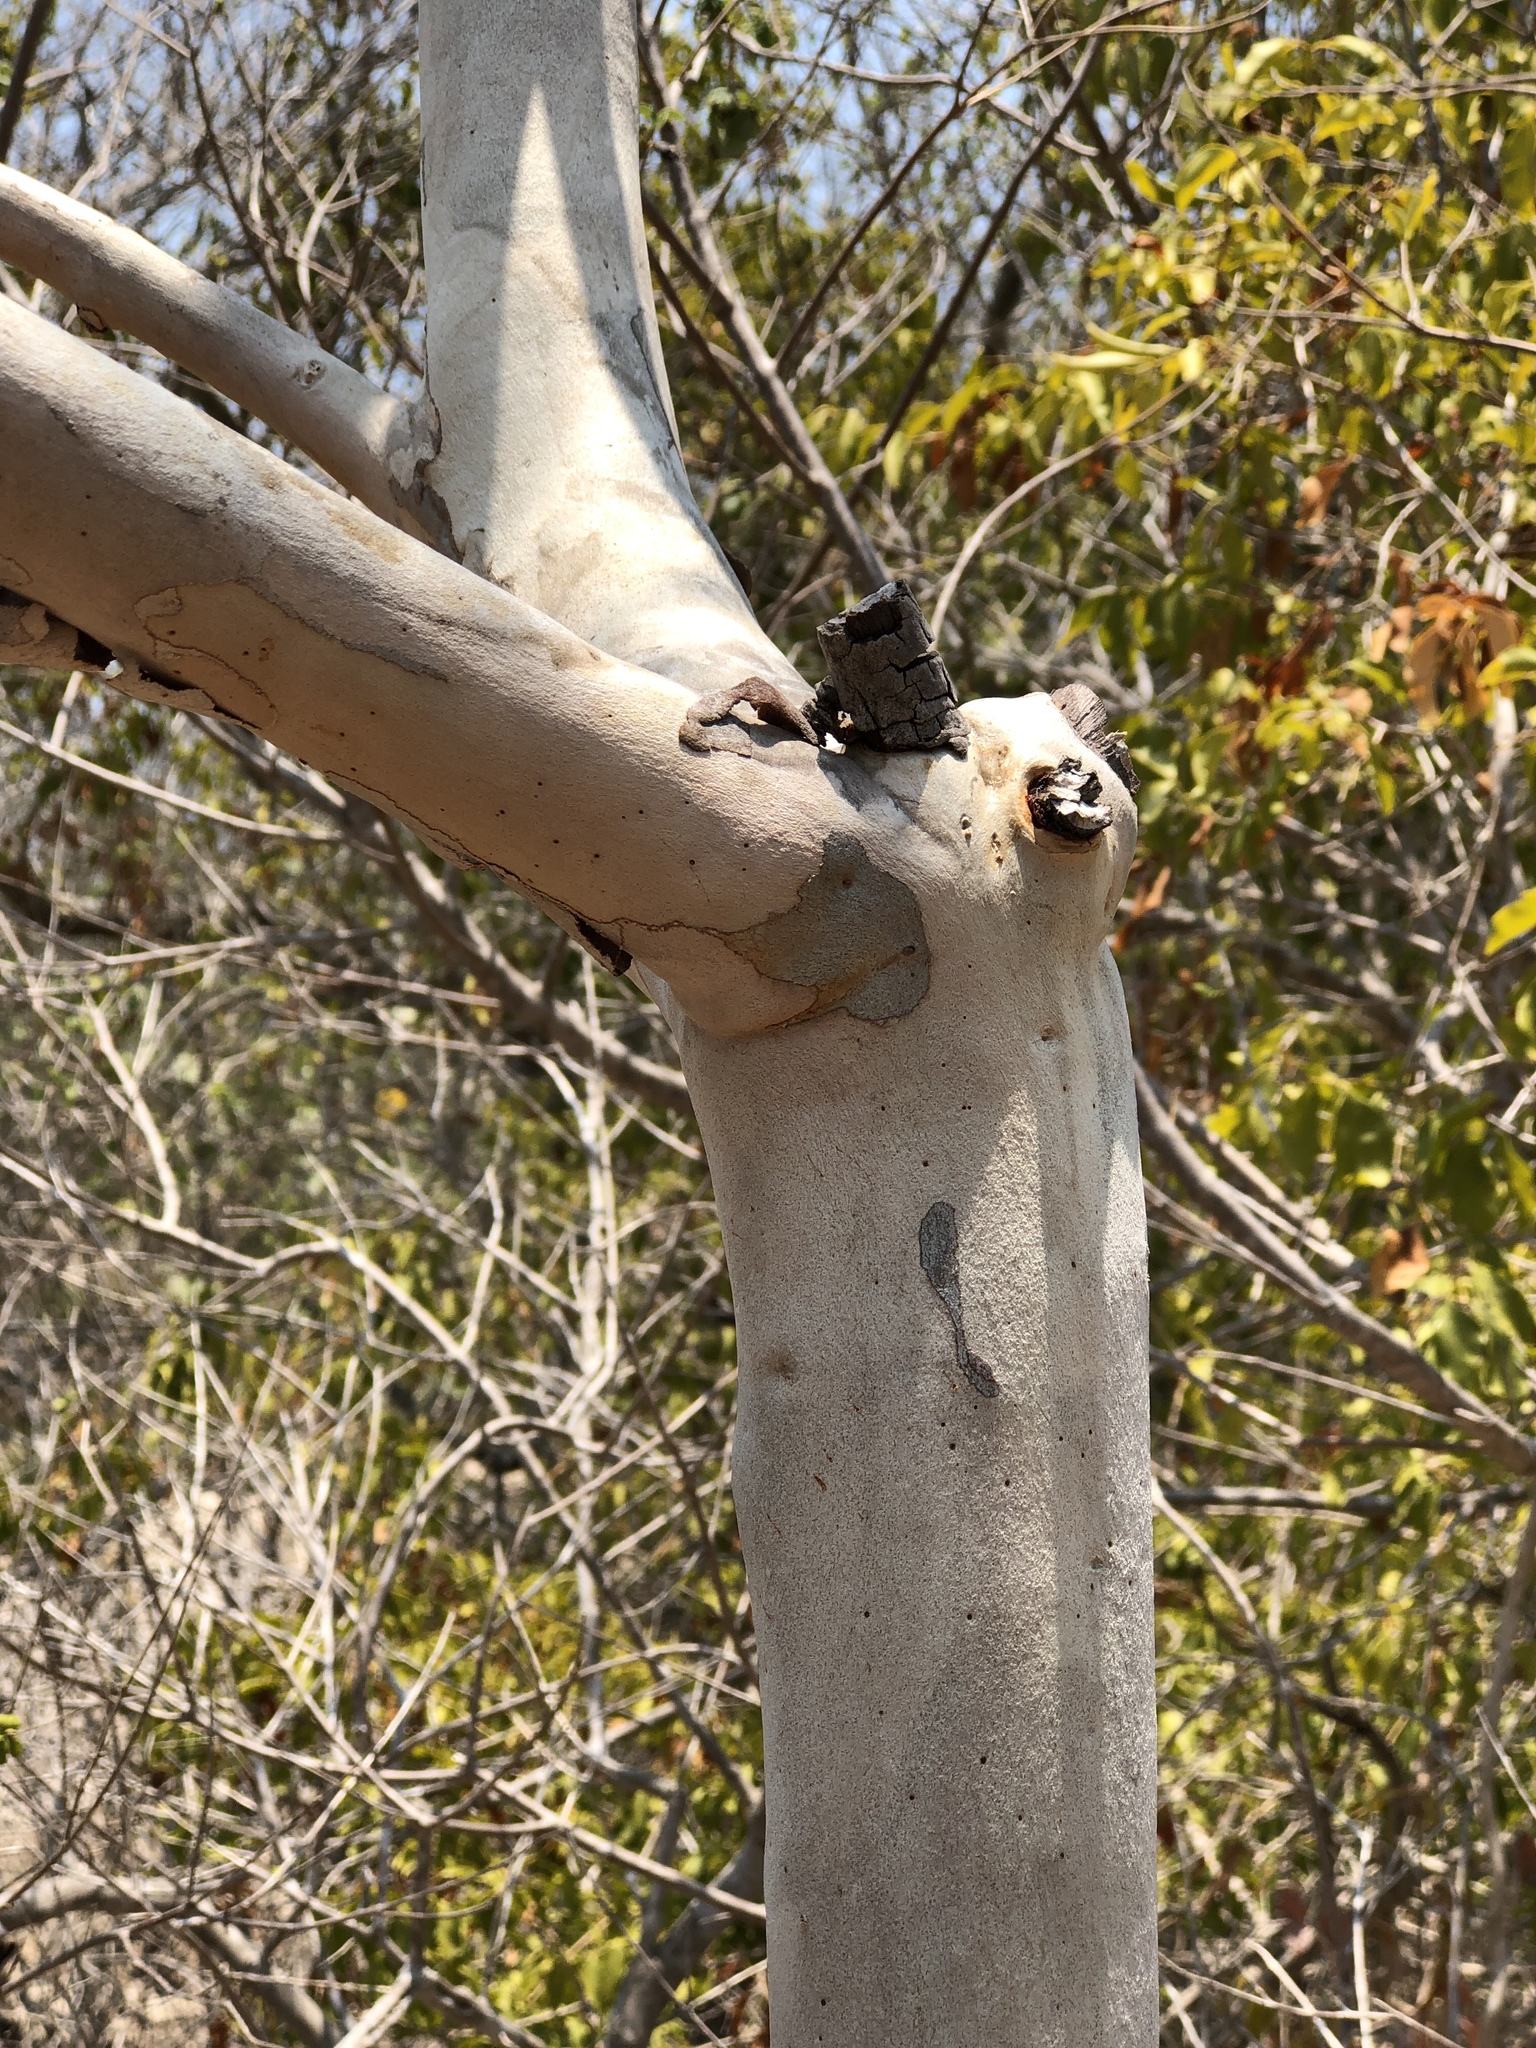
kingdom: Plantae
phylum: Tracheophyta
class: Magnoliopsida
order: Myrtales
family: Myrtaceae
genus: Eucalyptus
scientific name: Eucalyptus platyphylla
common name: Poplar-gum
